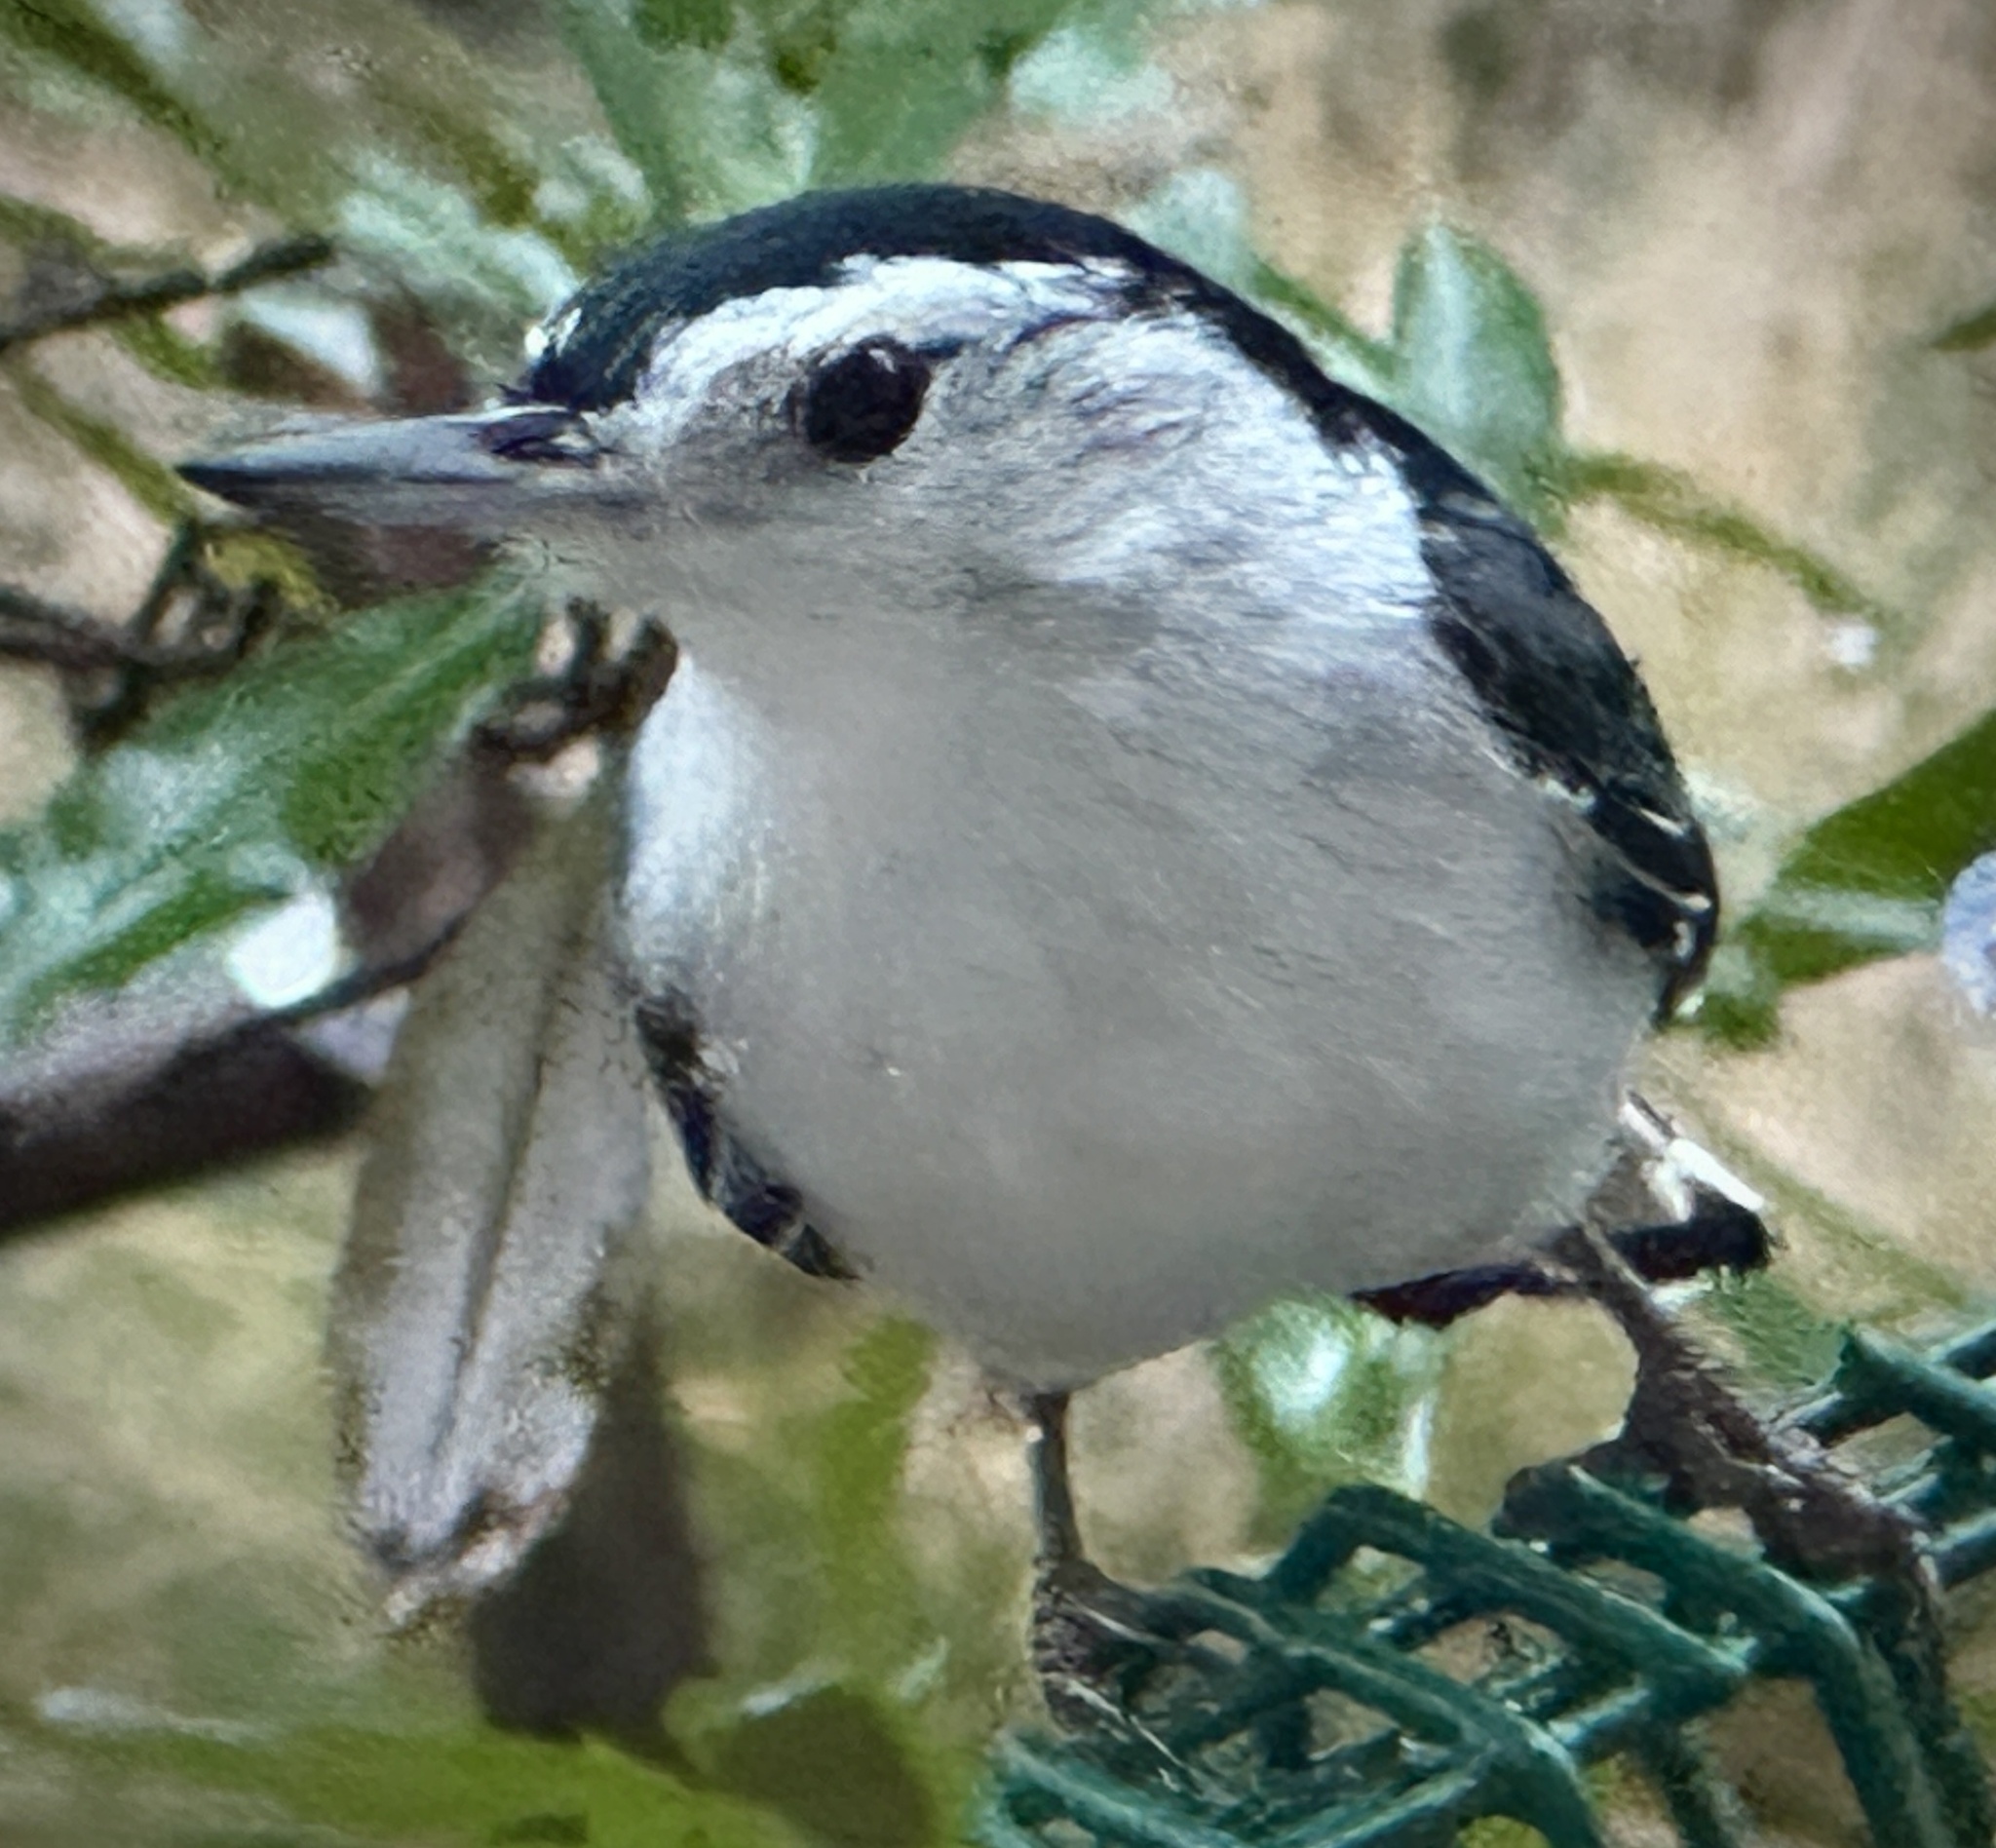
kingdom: Animalia
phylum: Chordata
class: Aves
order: Passeriformes
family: Sittidae
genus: Sitta
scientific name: Sitta carolinensis
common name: White-breasted nuthatch
